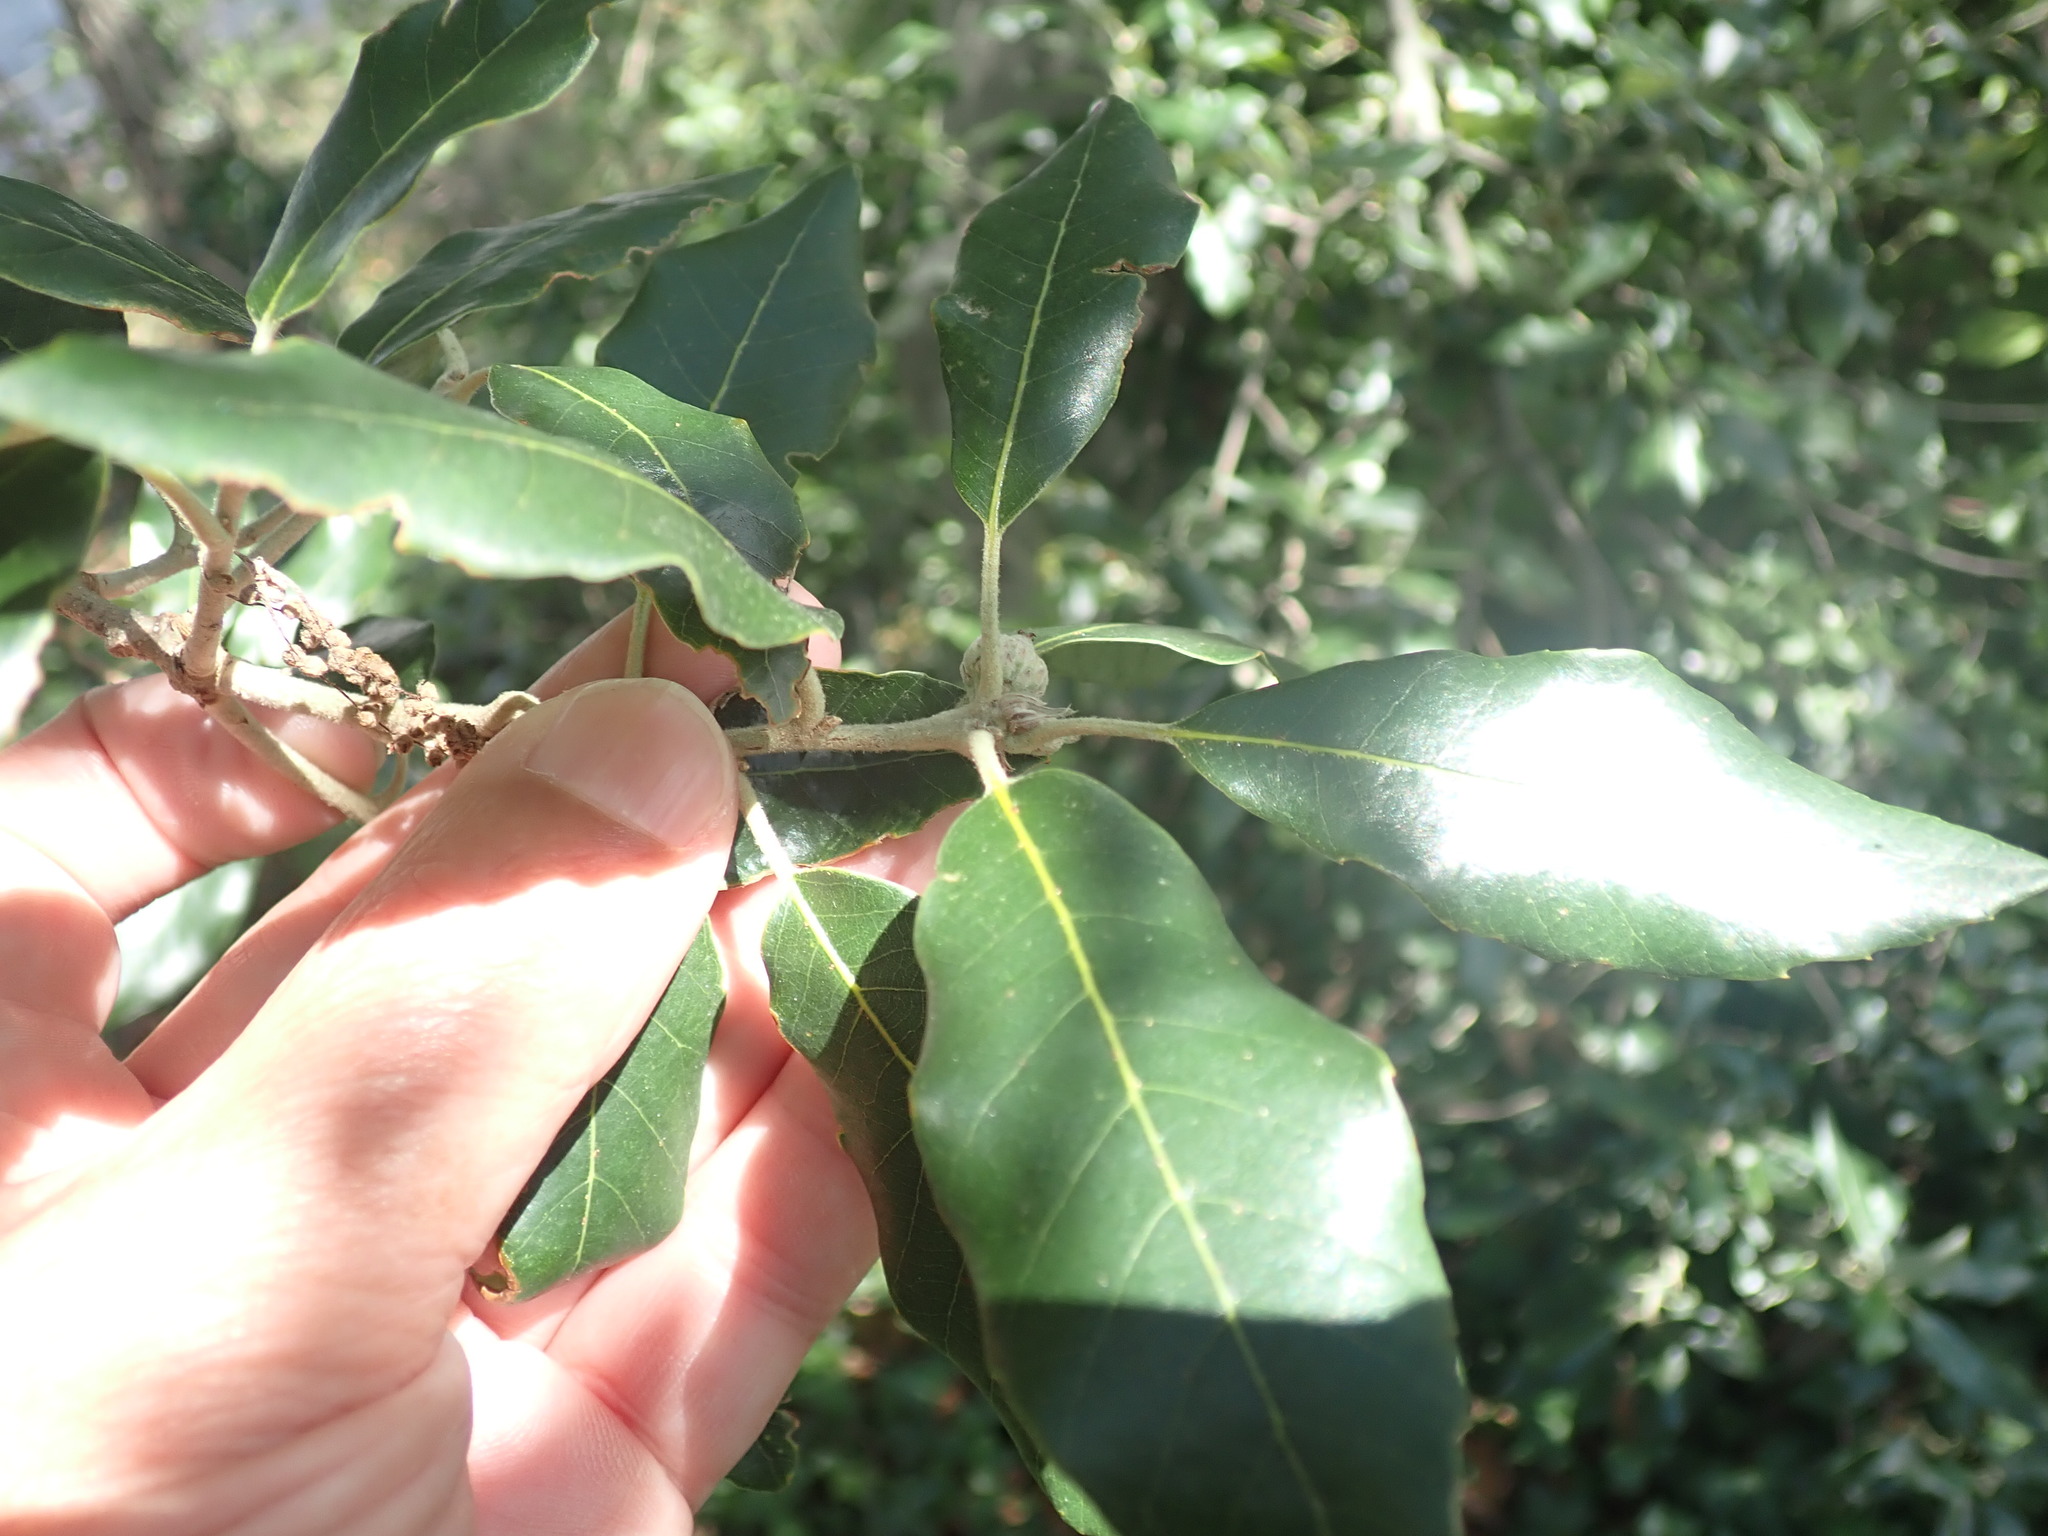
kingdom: Plantae
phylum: Tracheophyta
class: Magnoliopsida
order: Fagales
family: Fagaceae
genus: Quercus
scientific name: Quercus ilex
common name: Evergreen oak
